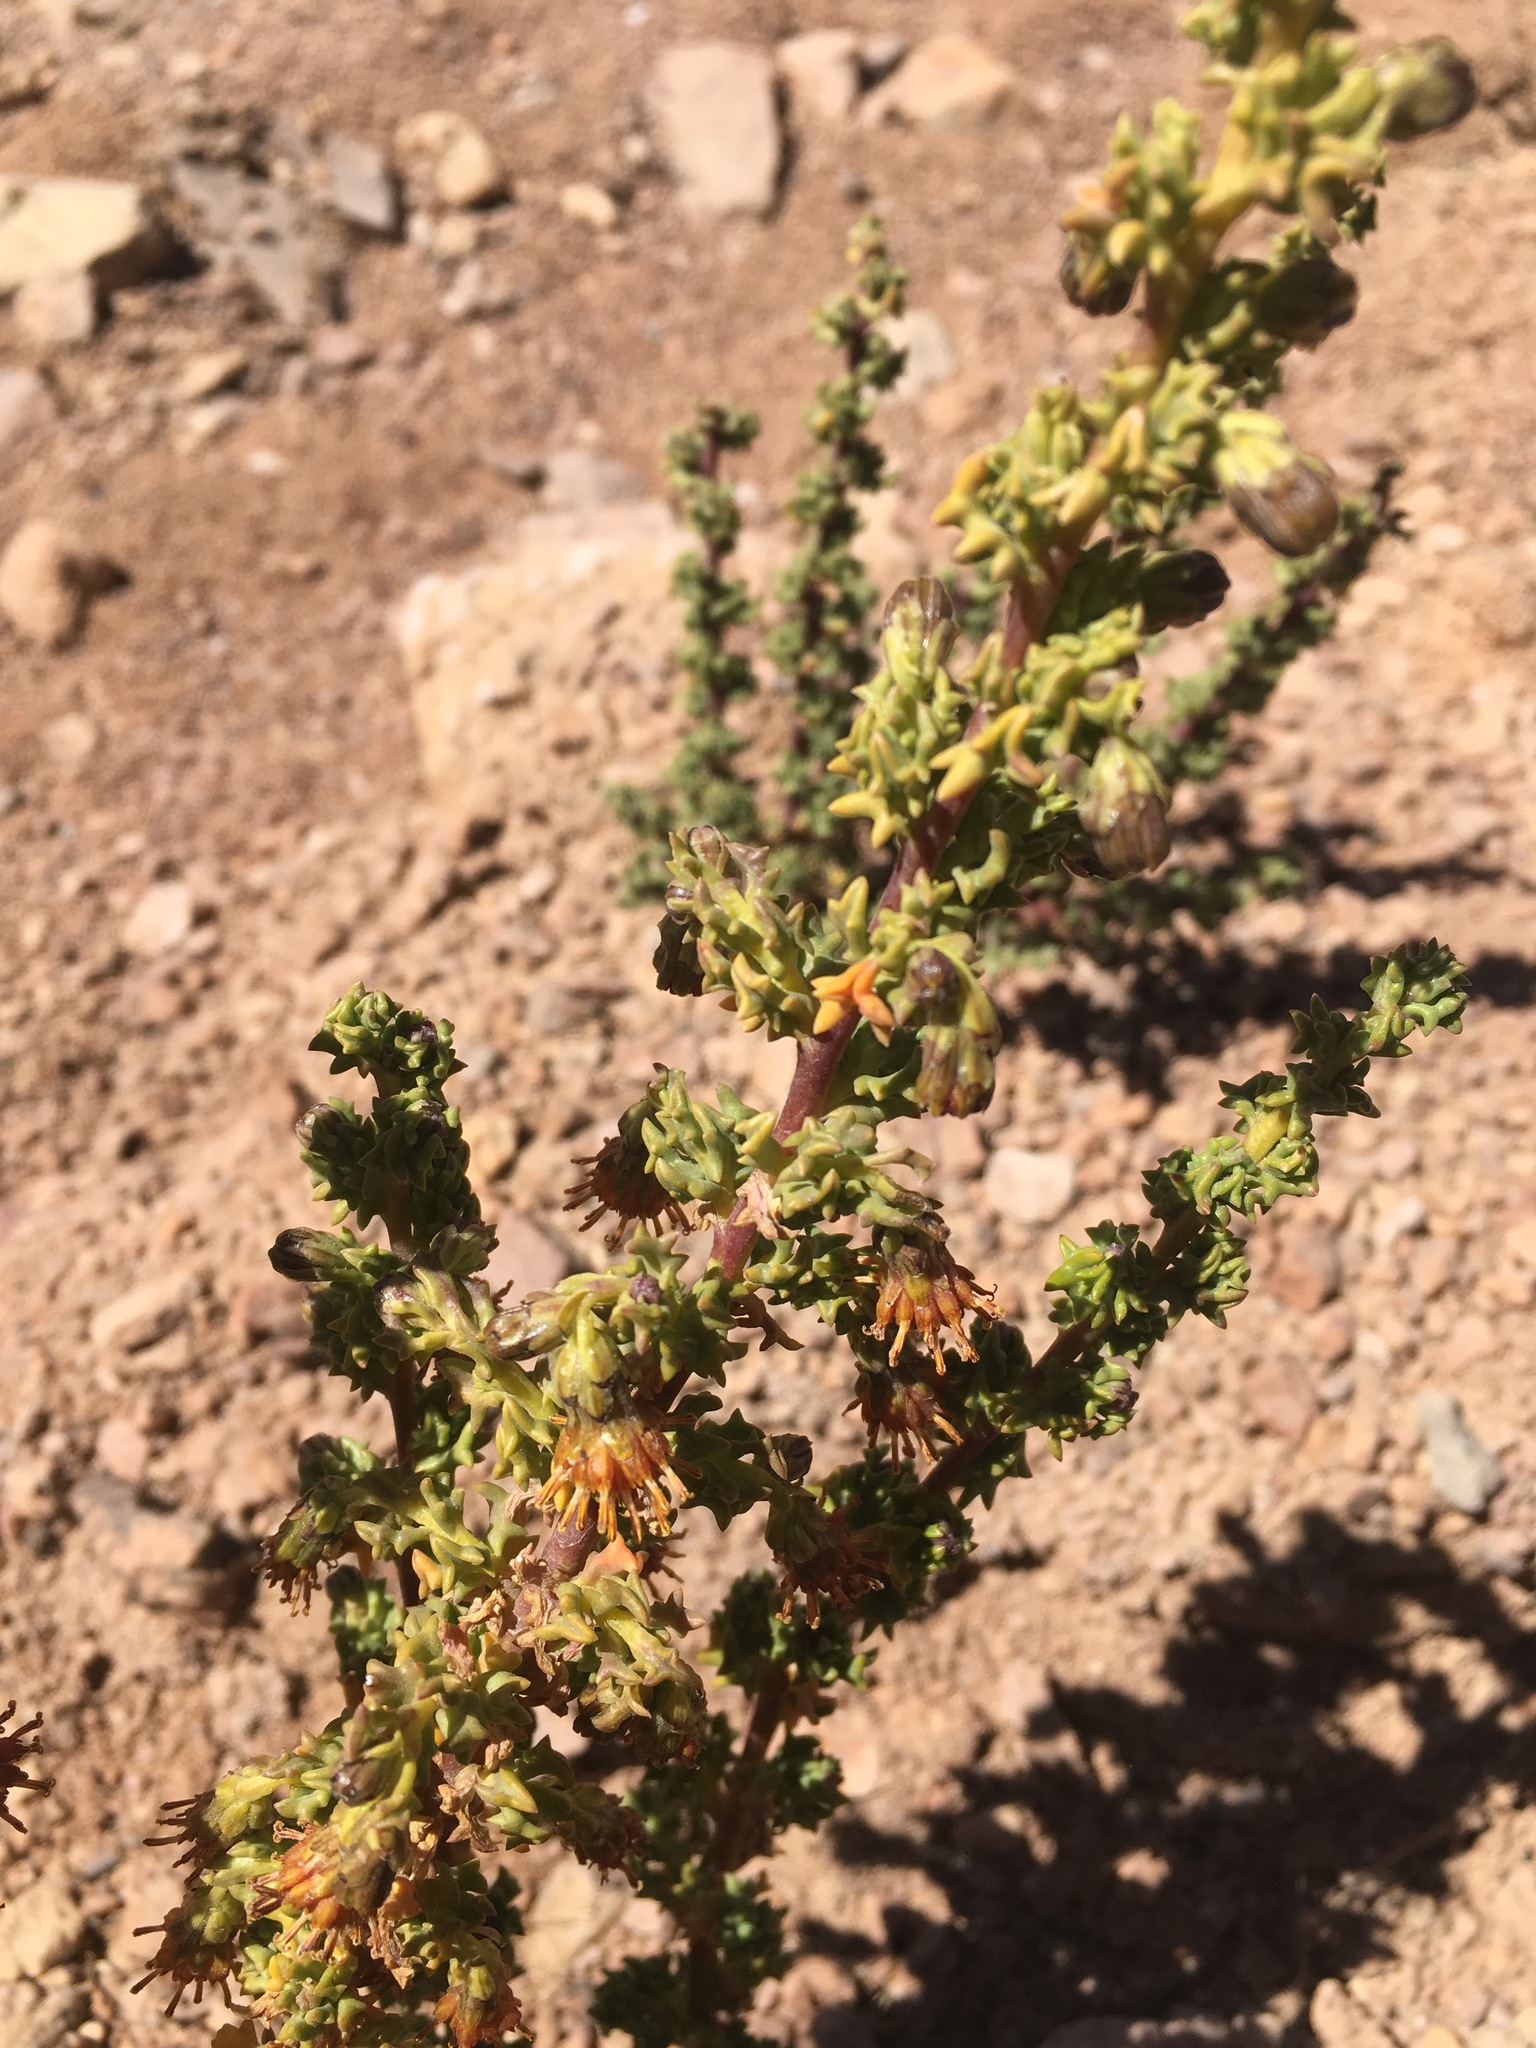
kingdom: Plantae
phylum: Tracheophyta
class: Magnoliopsida
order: Asterales
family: Asteraceae
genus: Senecio
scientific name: Senecio nutans
